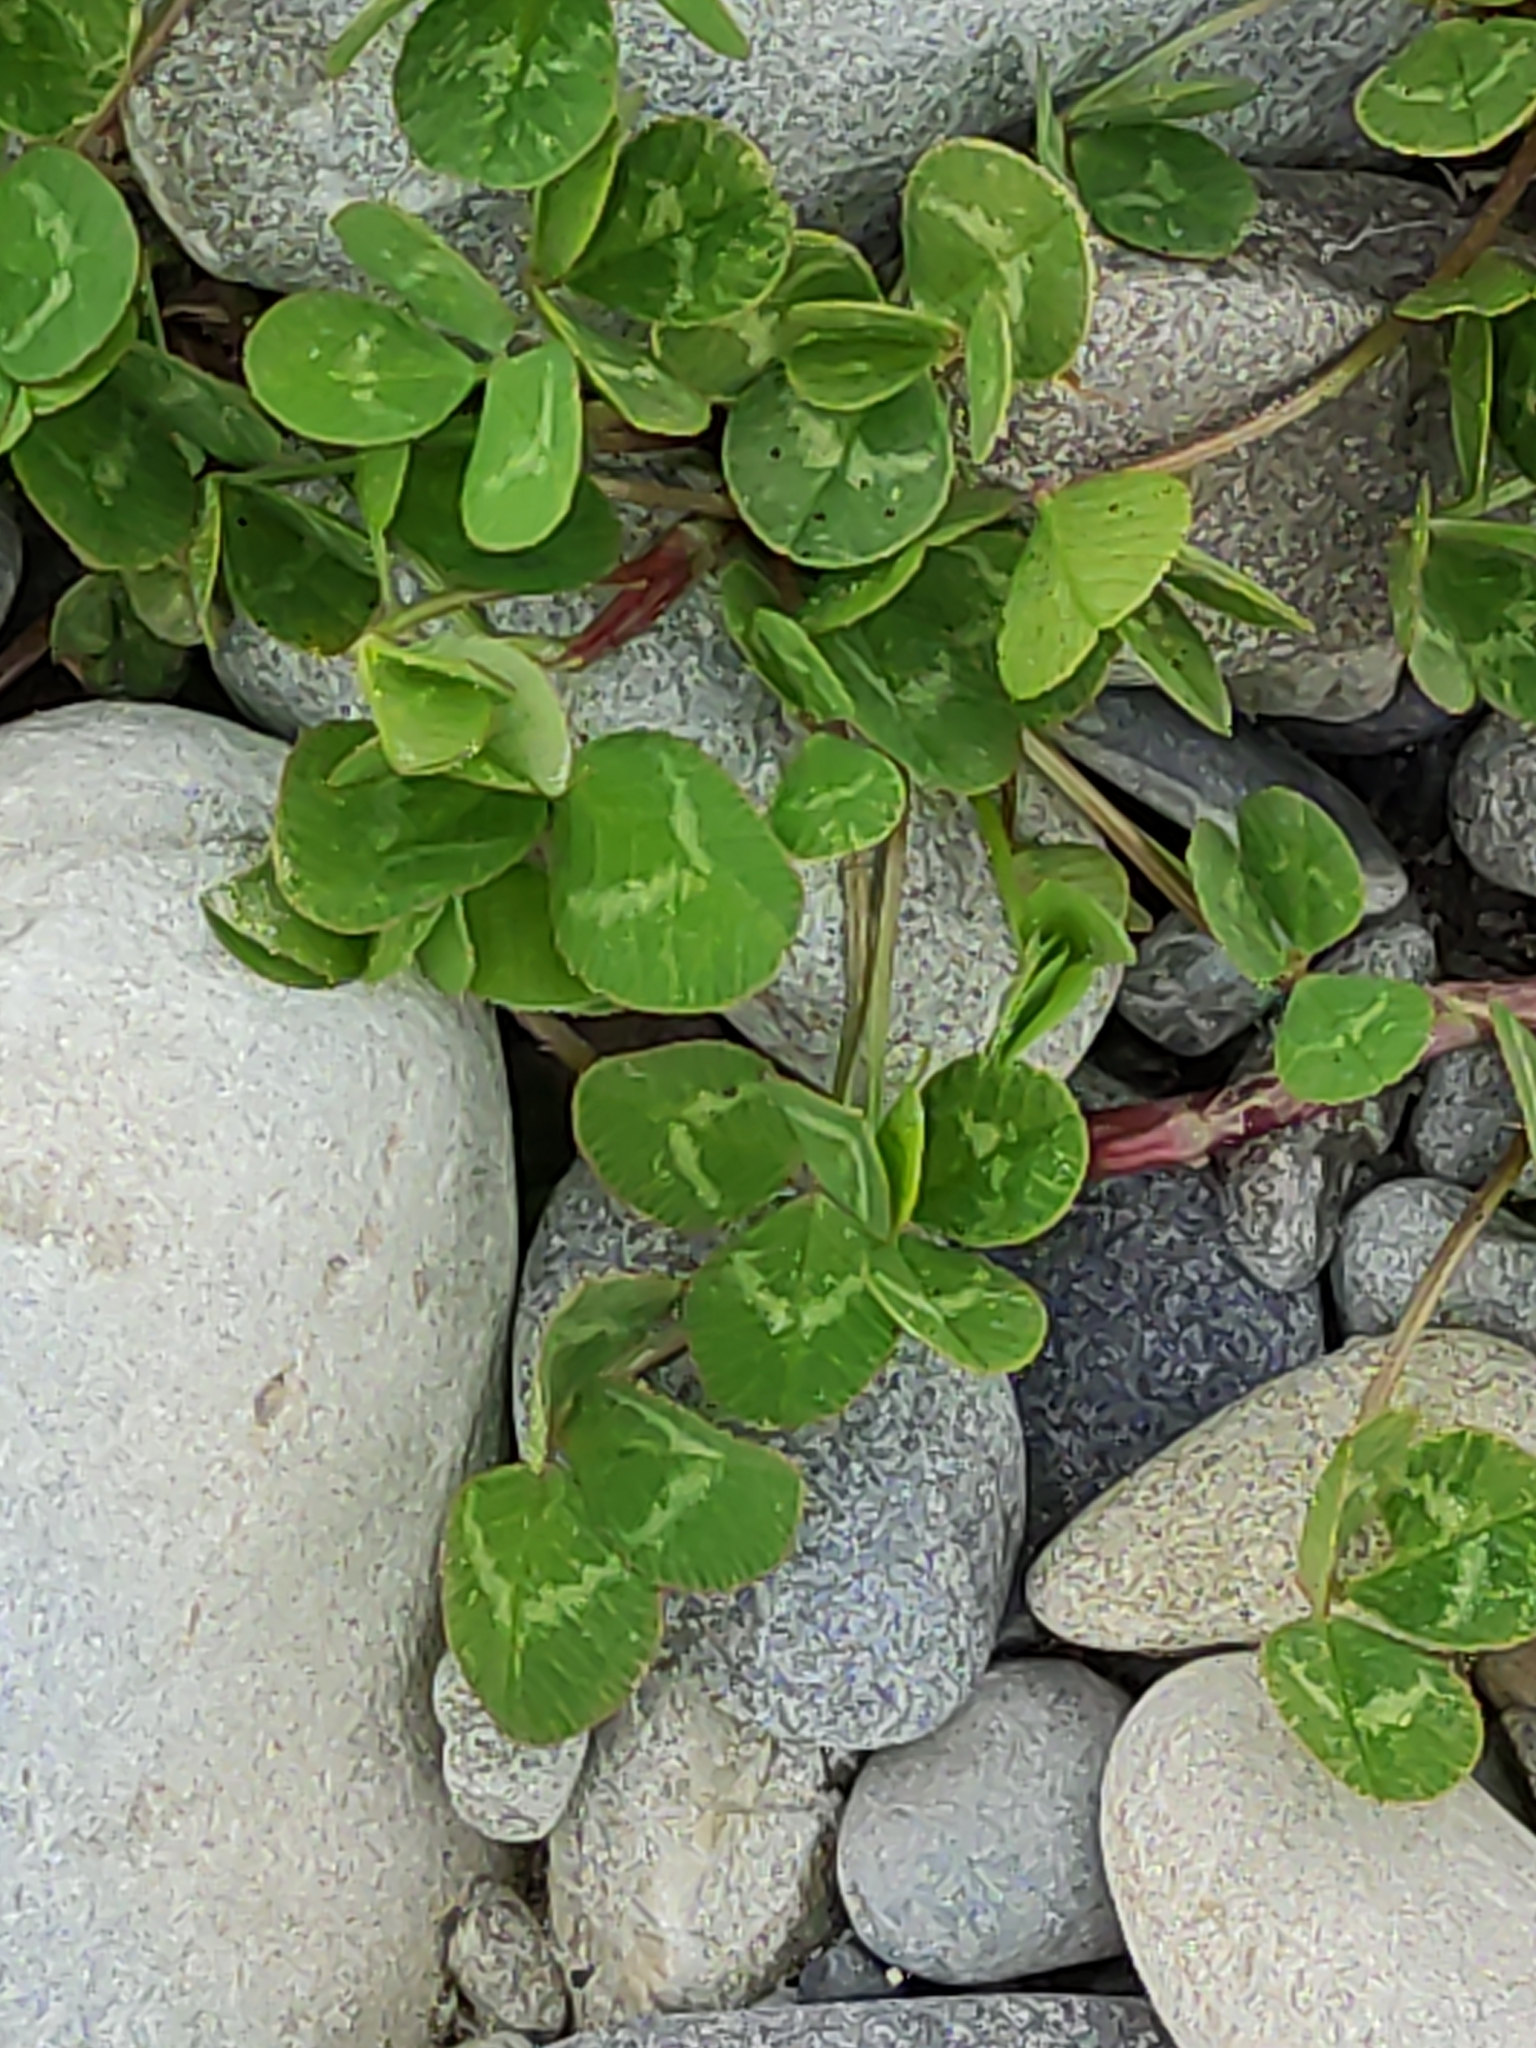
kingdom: Plantae
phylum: Tracheophyta
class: Magnoliopsida
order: Fabales
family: Fabaceae
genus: Trifolium
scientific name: Trifolium repens
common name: White clover
